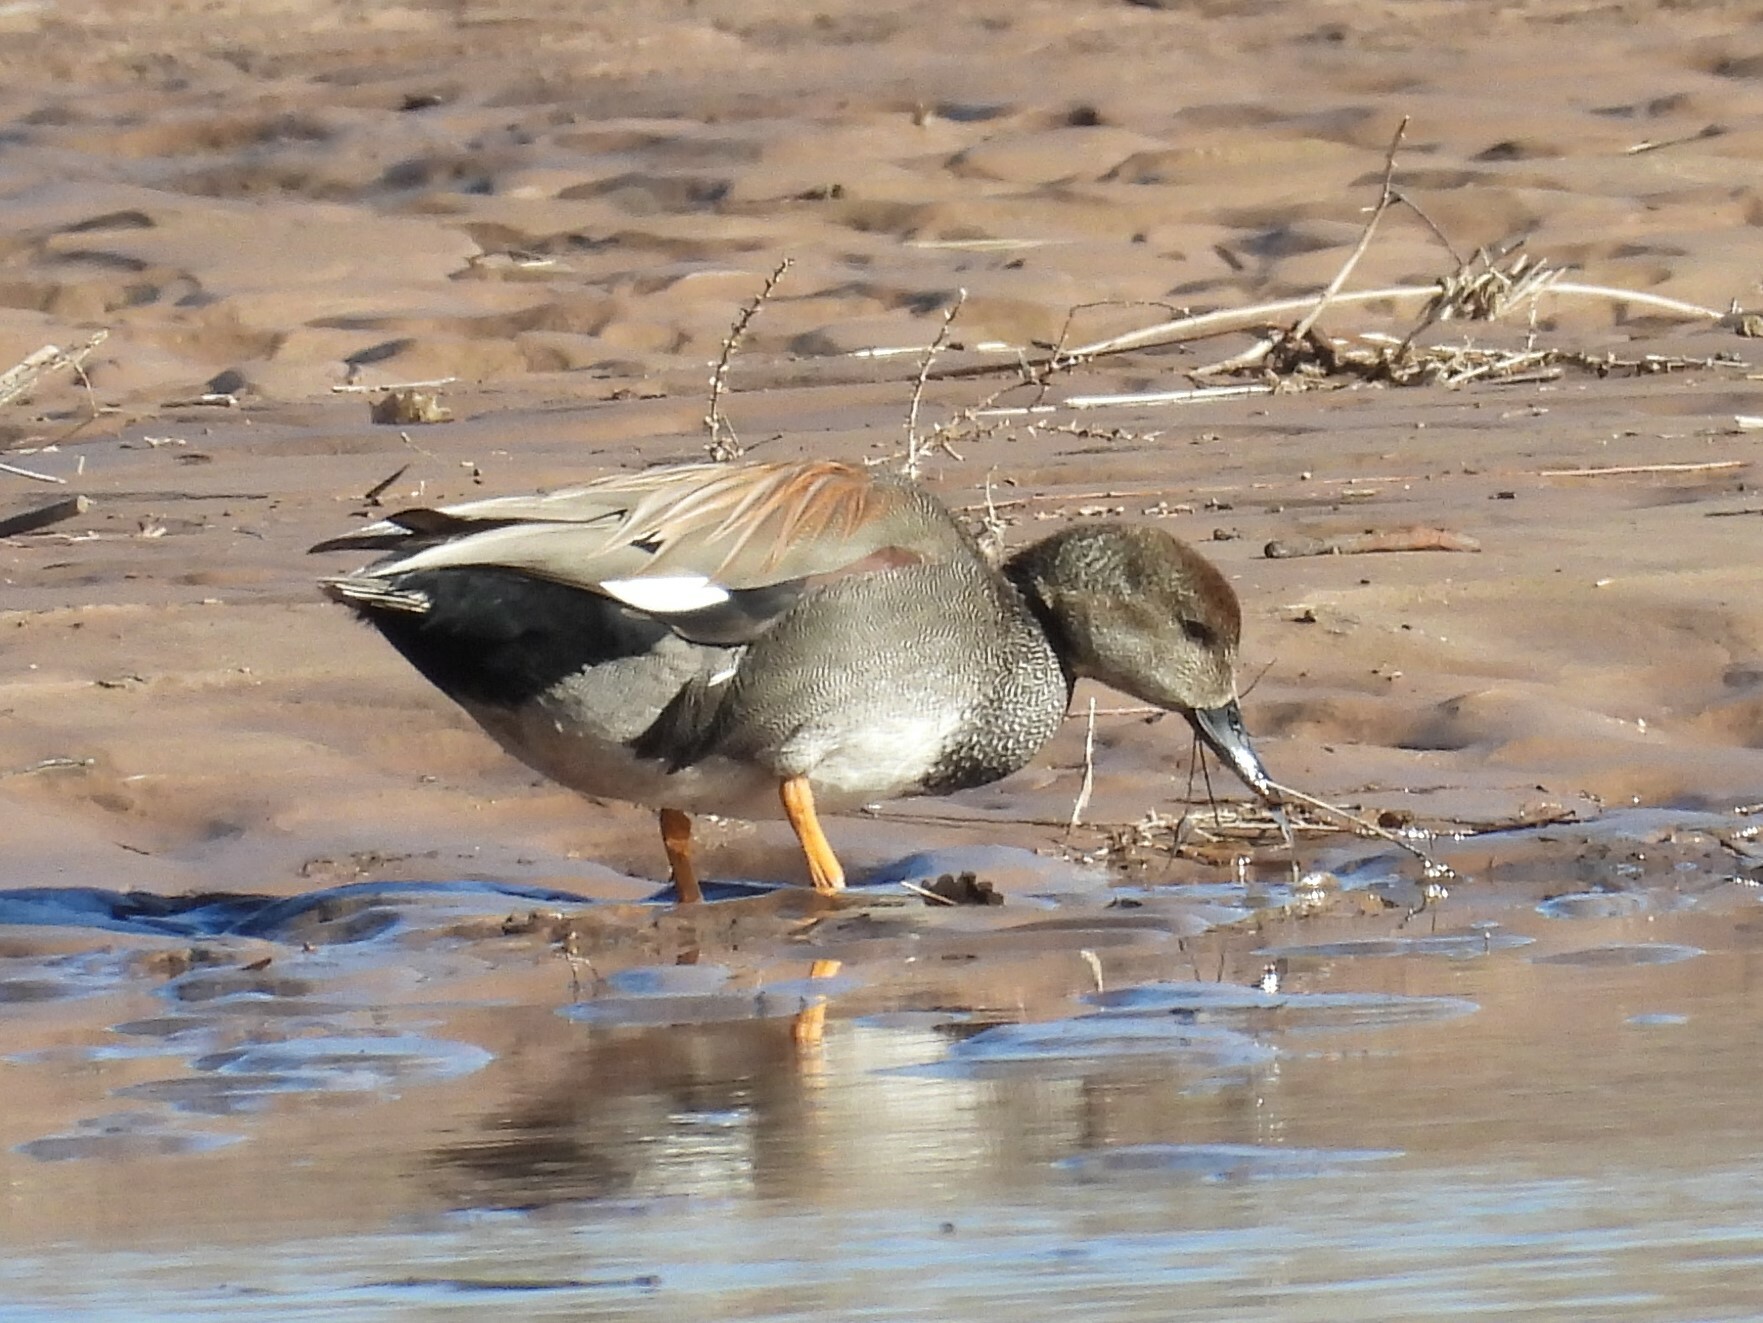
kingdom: Animalia
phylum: Chordata
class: Aves
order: Anseriformes
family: Anatidae
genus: Mareca
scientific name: Mareca strepera
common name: Gadwall
